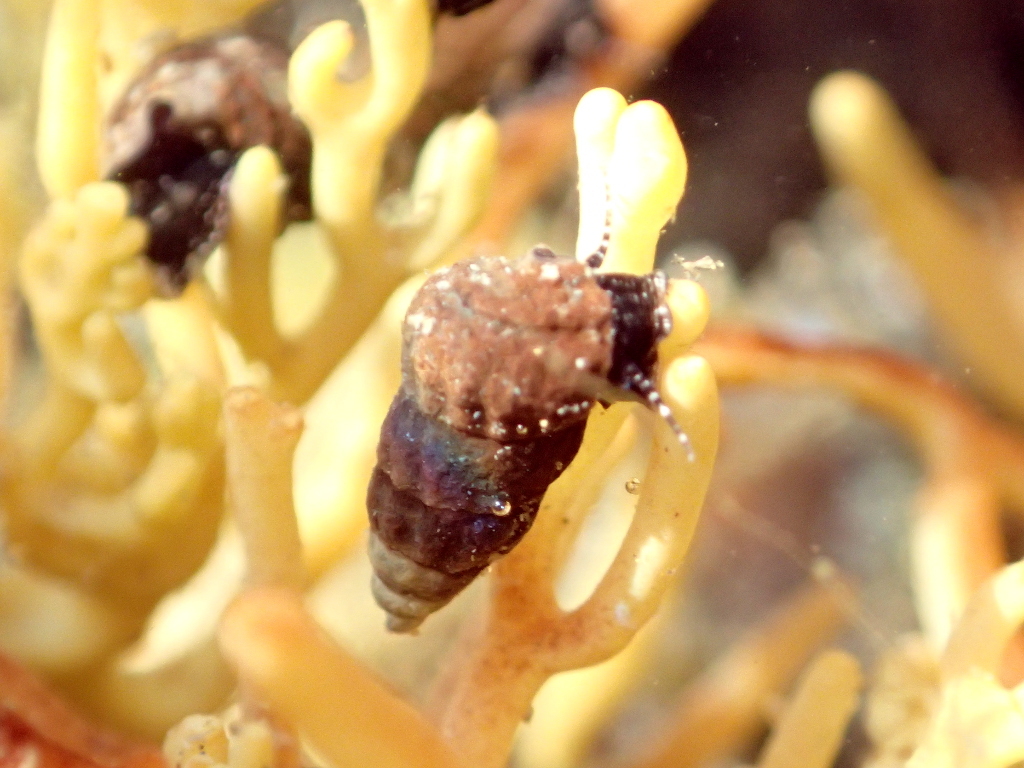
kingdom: Animalia
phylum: Mollusca
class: Gastropoda
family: Batillariidae
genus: Zeacumantus
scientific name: Zeacumantus subcarinatus
